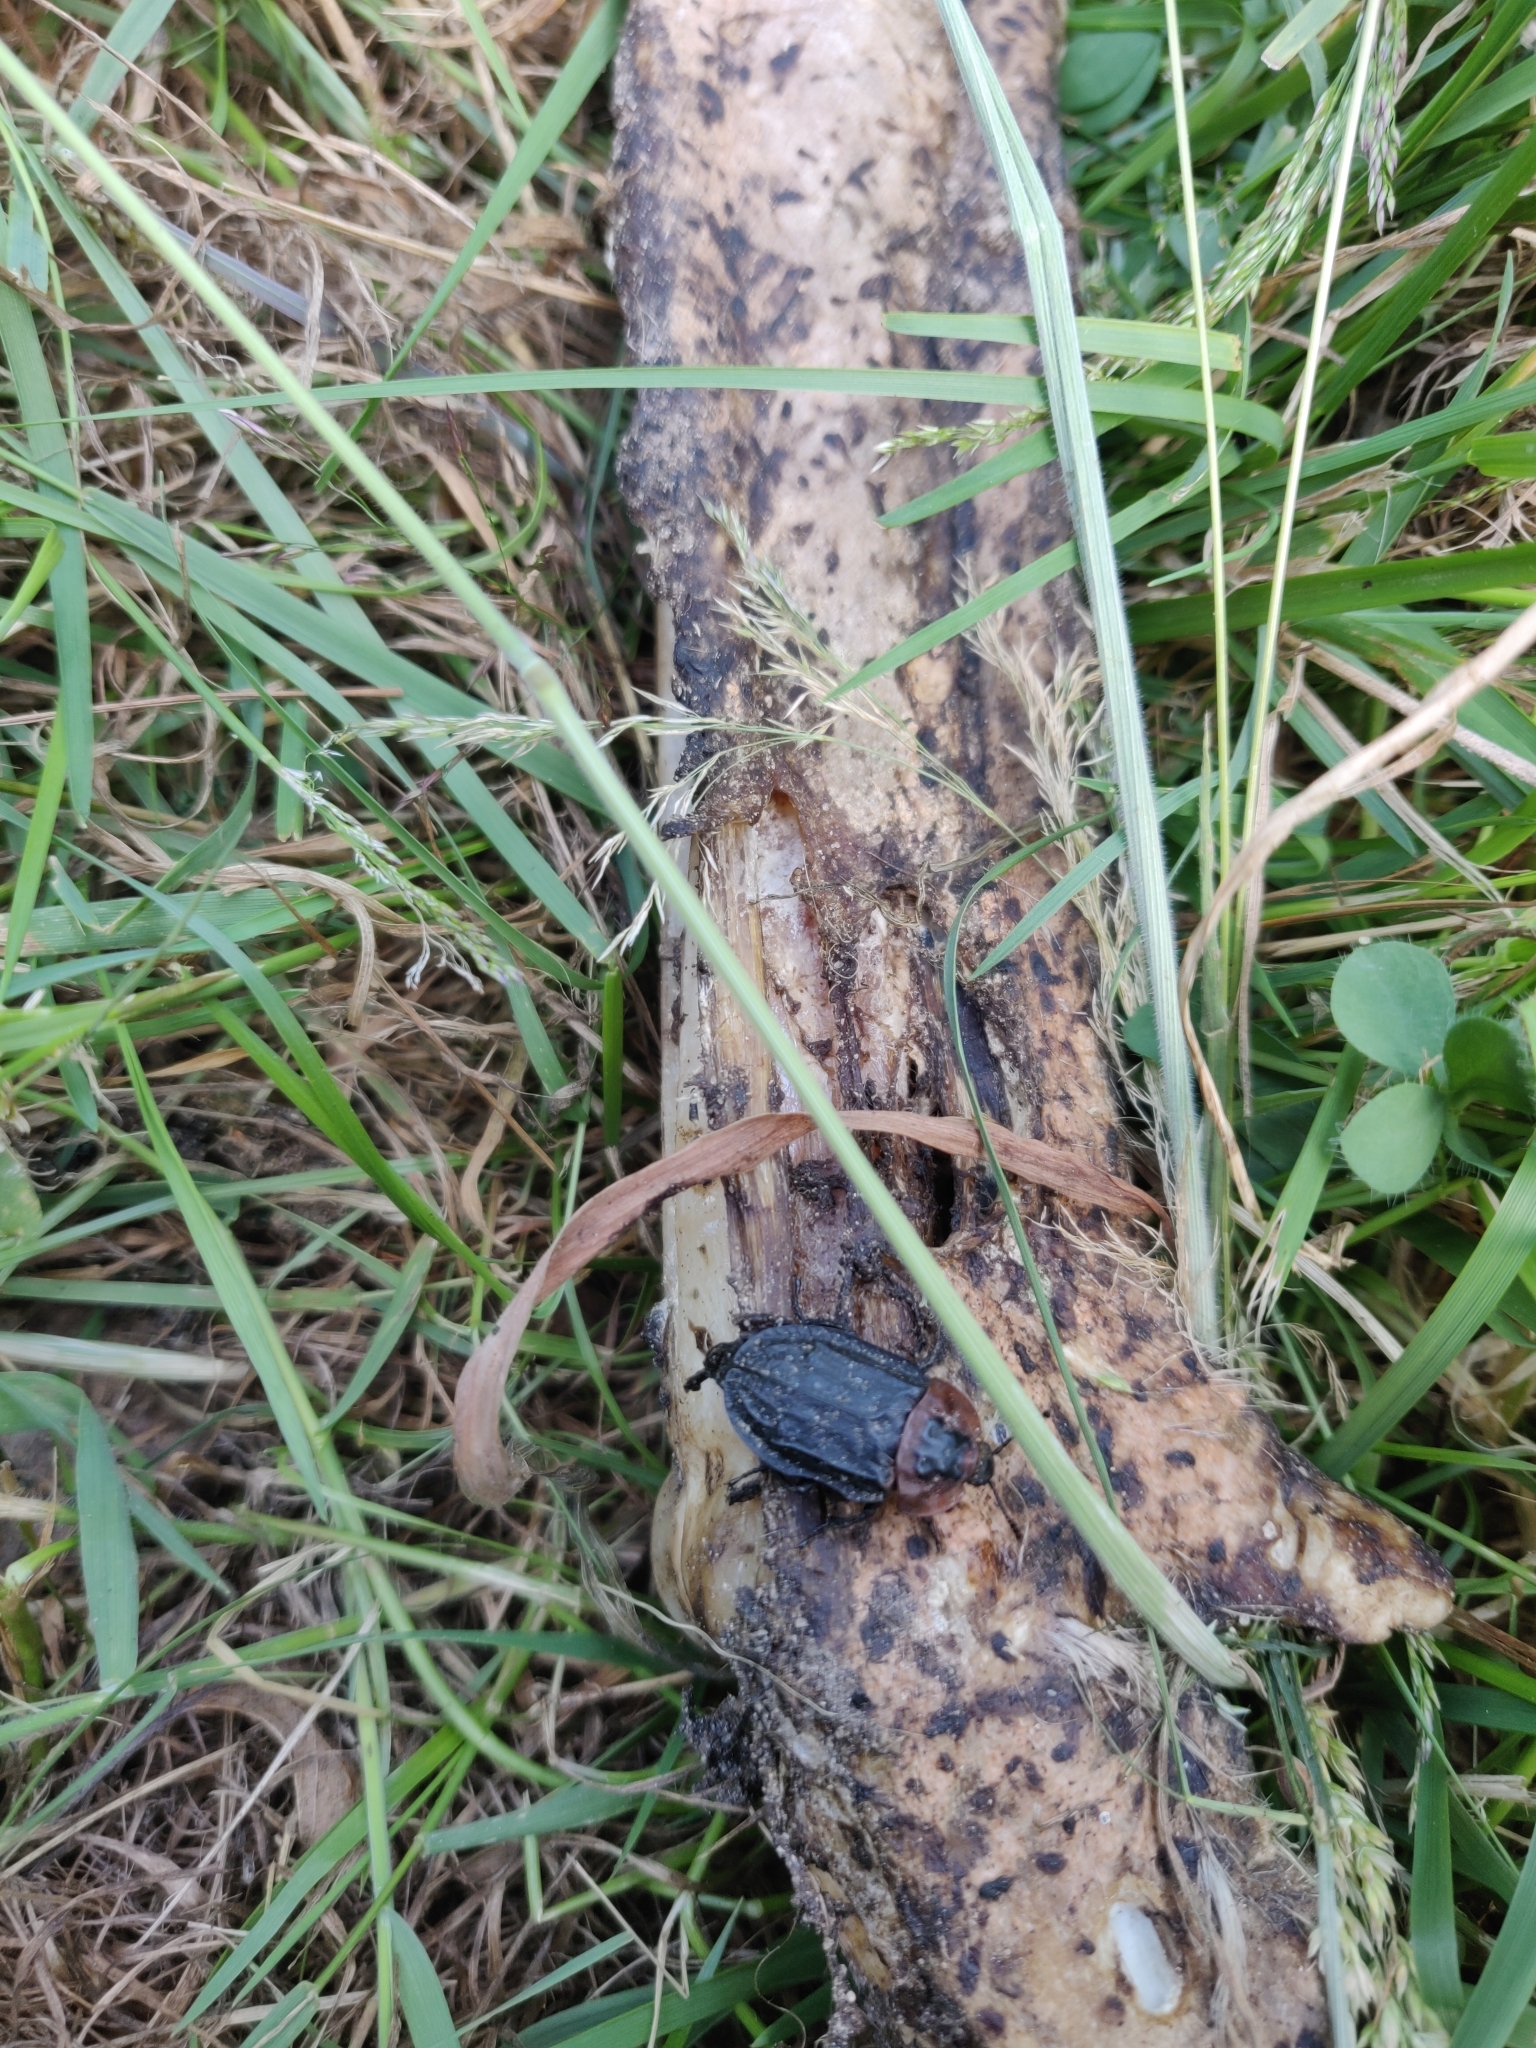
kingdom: Animalia
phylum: Arthropoda
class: Insecta
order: Coleoptera
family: Staphylinidae
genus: Oiceoptoma
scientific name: Oiceoptoma thoracicum
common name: Red-breasted carrion beetle
